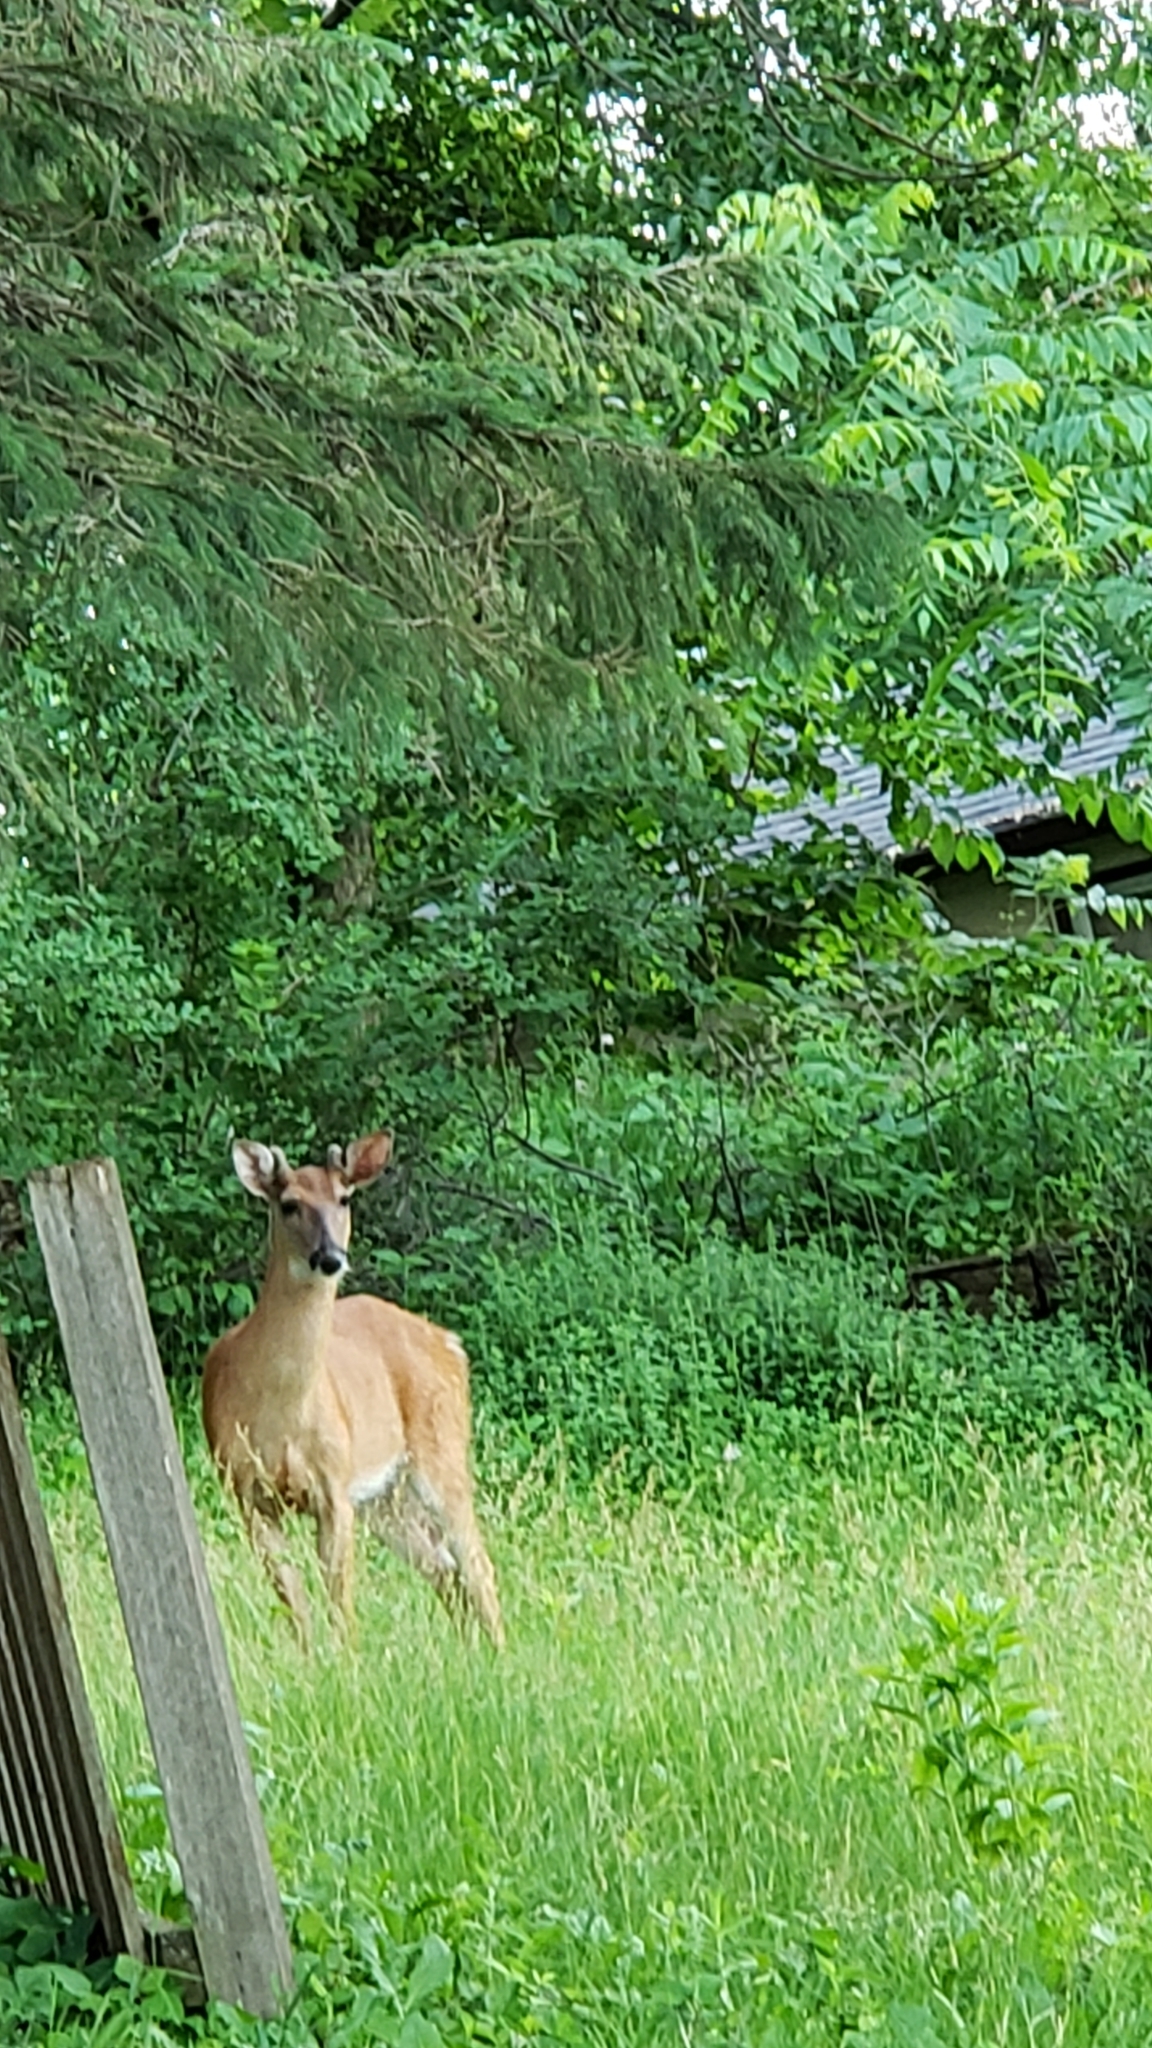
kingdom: Animalia
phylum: Chordata
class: Mammalia
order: Artiodactyla
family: Cervidae
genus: Odocoileus
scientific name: Odocoileus virginianus
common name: White-tailed deer
